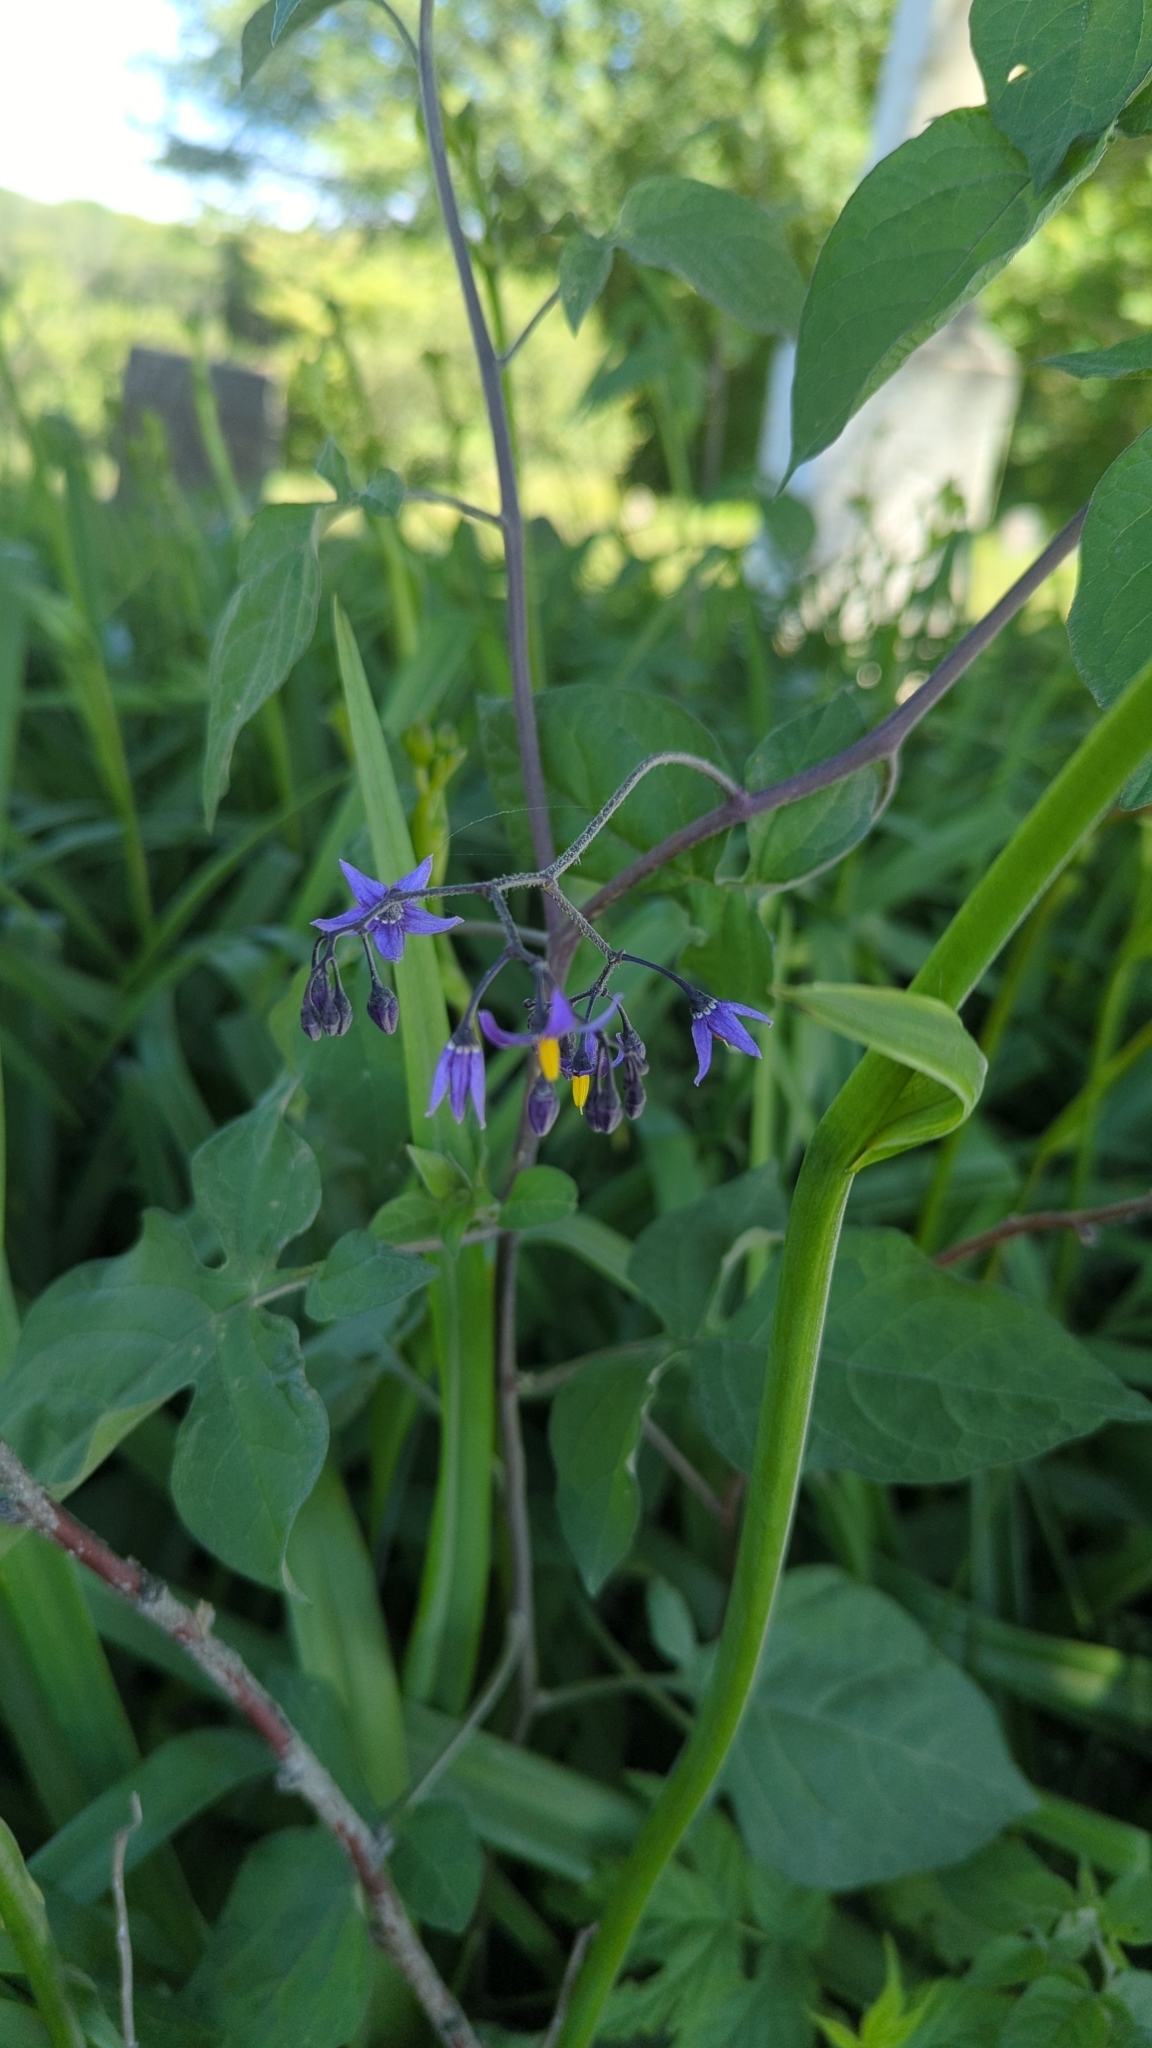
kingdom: Plantae
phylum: Tracheophyta
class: Magnoliopsida
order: Solanales
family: Solanaceae
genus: Solanum
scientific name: Solanum dulcamara
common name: Climbing nightshade
